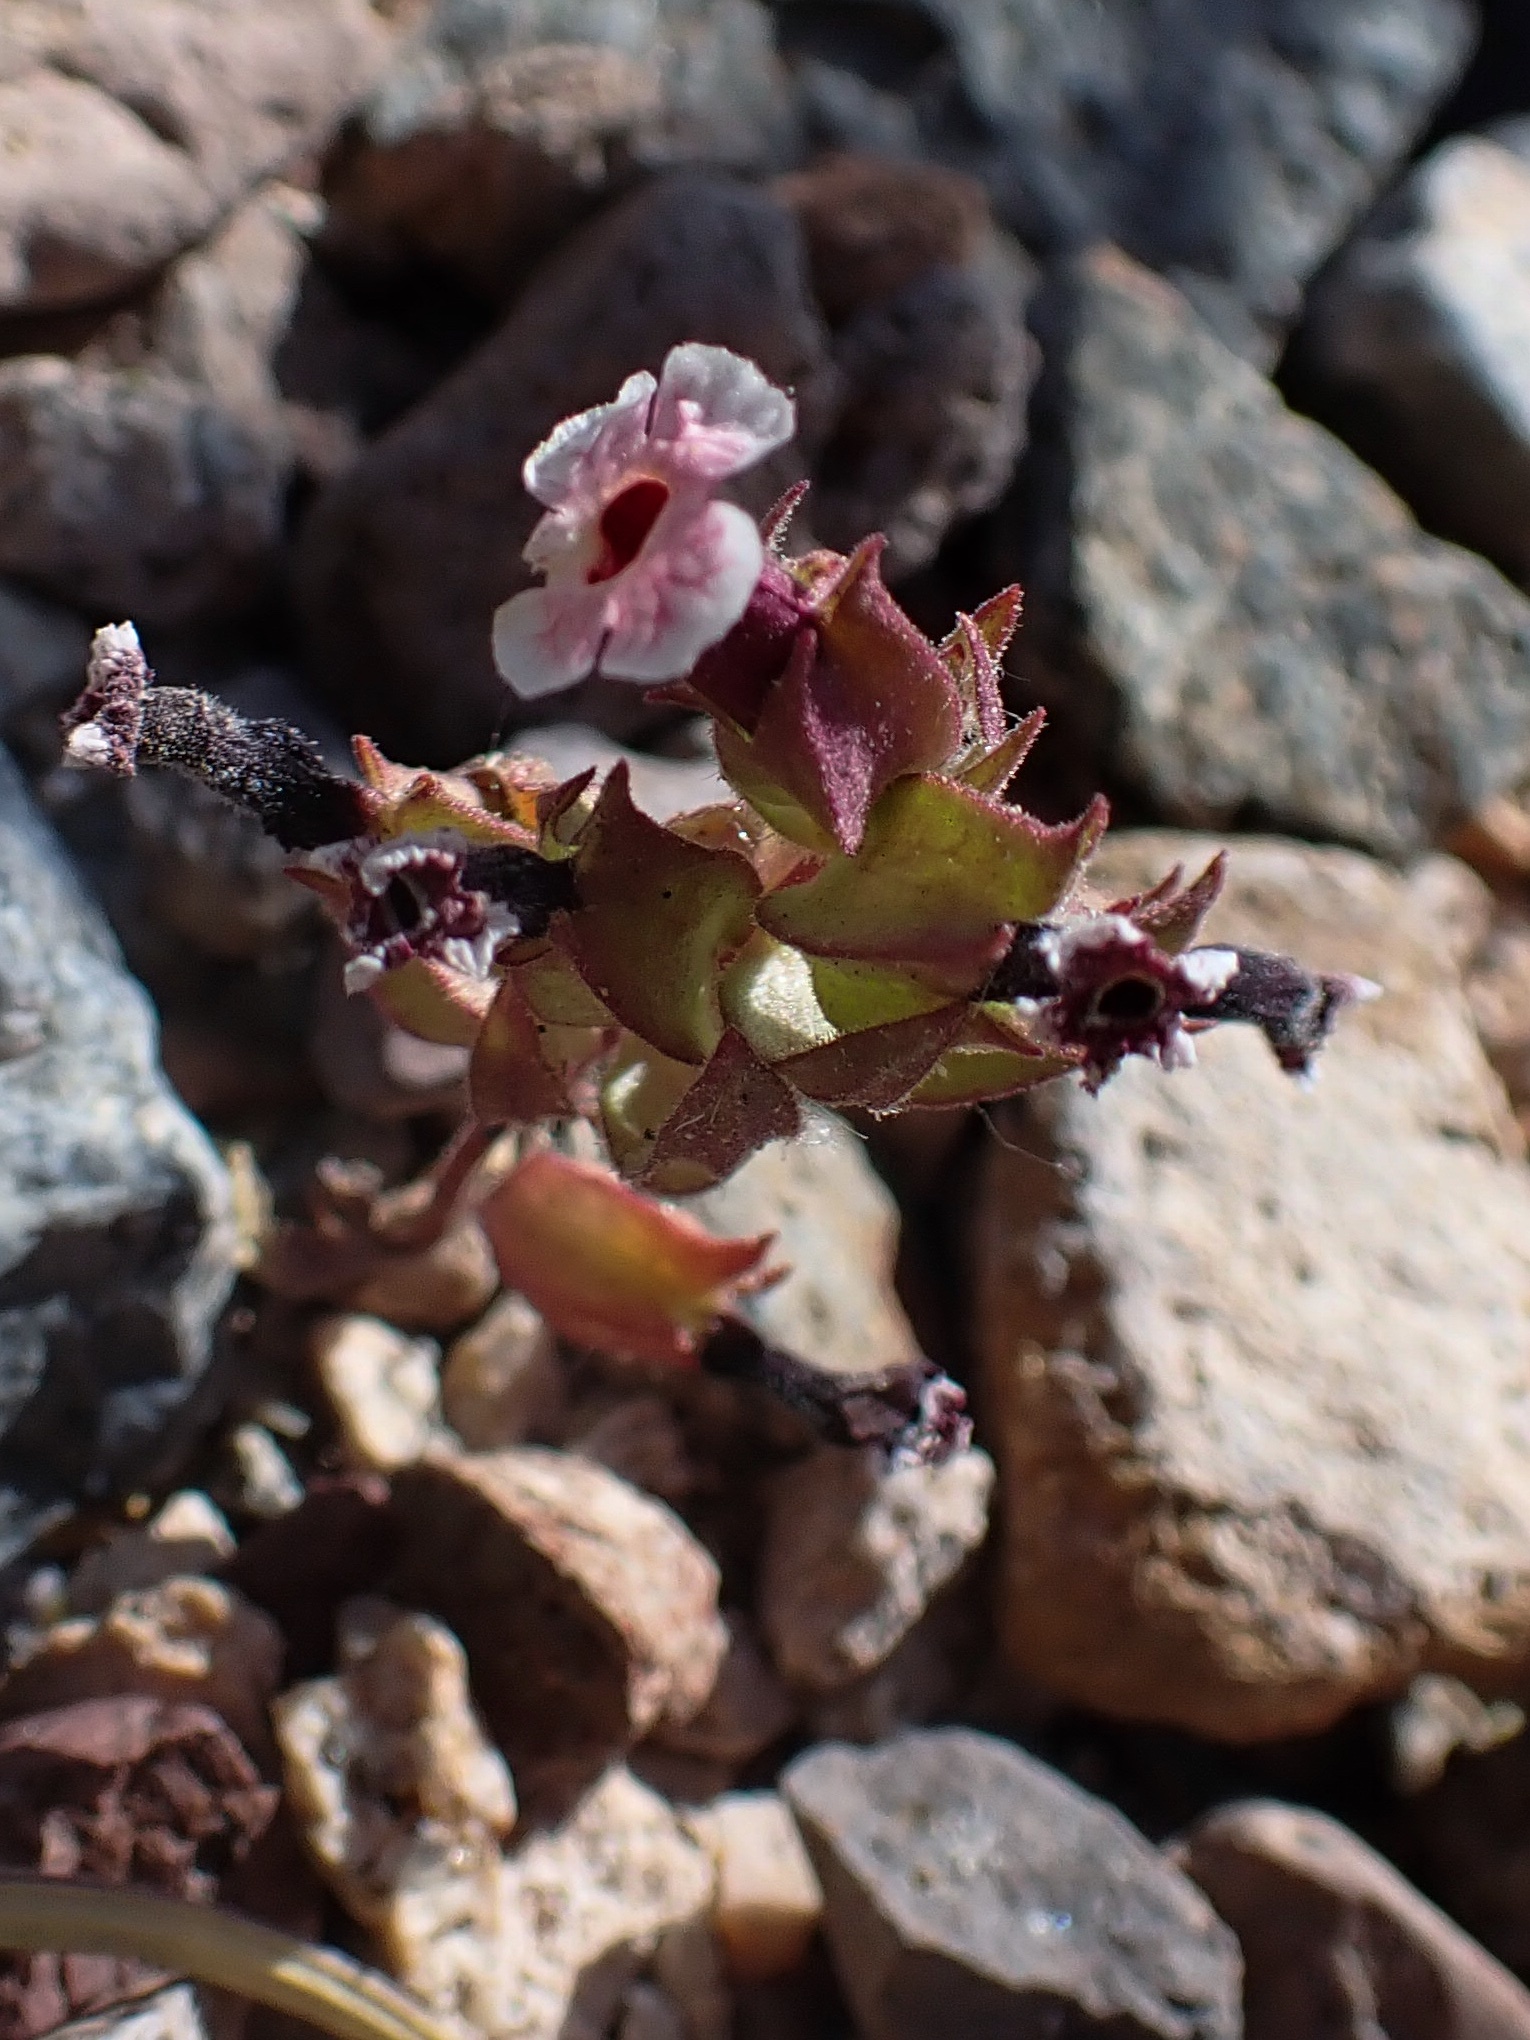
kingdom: Plantae
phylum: Tracheophyta
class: Magnoliopsida
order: Lamiales
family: Phrymaceae
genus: Diplacus
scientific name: Diplacus mohavensis
